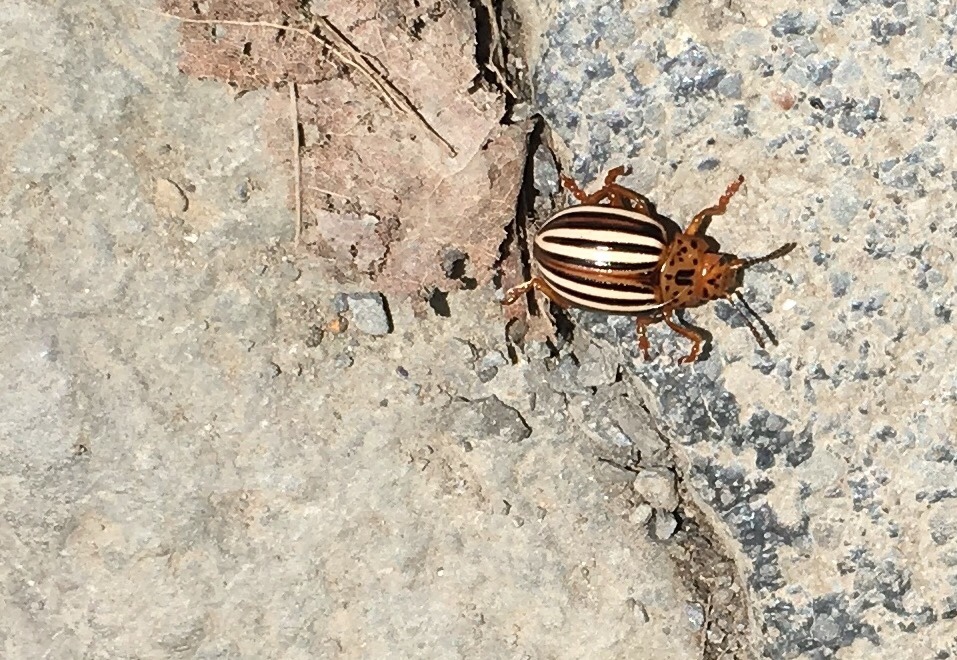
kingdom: Animalia
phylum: Arthropoda
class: Insecta
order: Coleoptera
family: Chrysomelidae
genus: Leptinotarsa
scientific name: Leptinotarsa juncta
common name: False potato beetle
